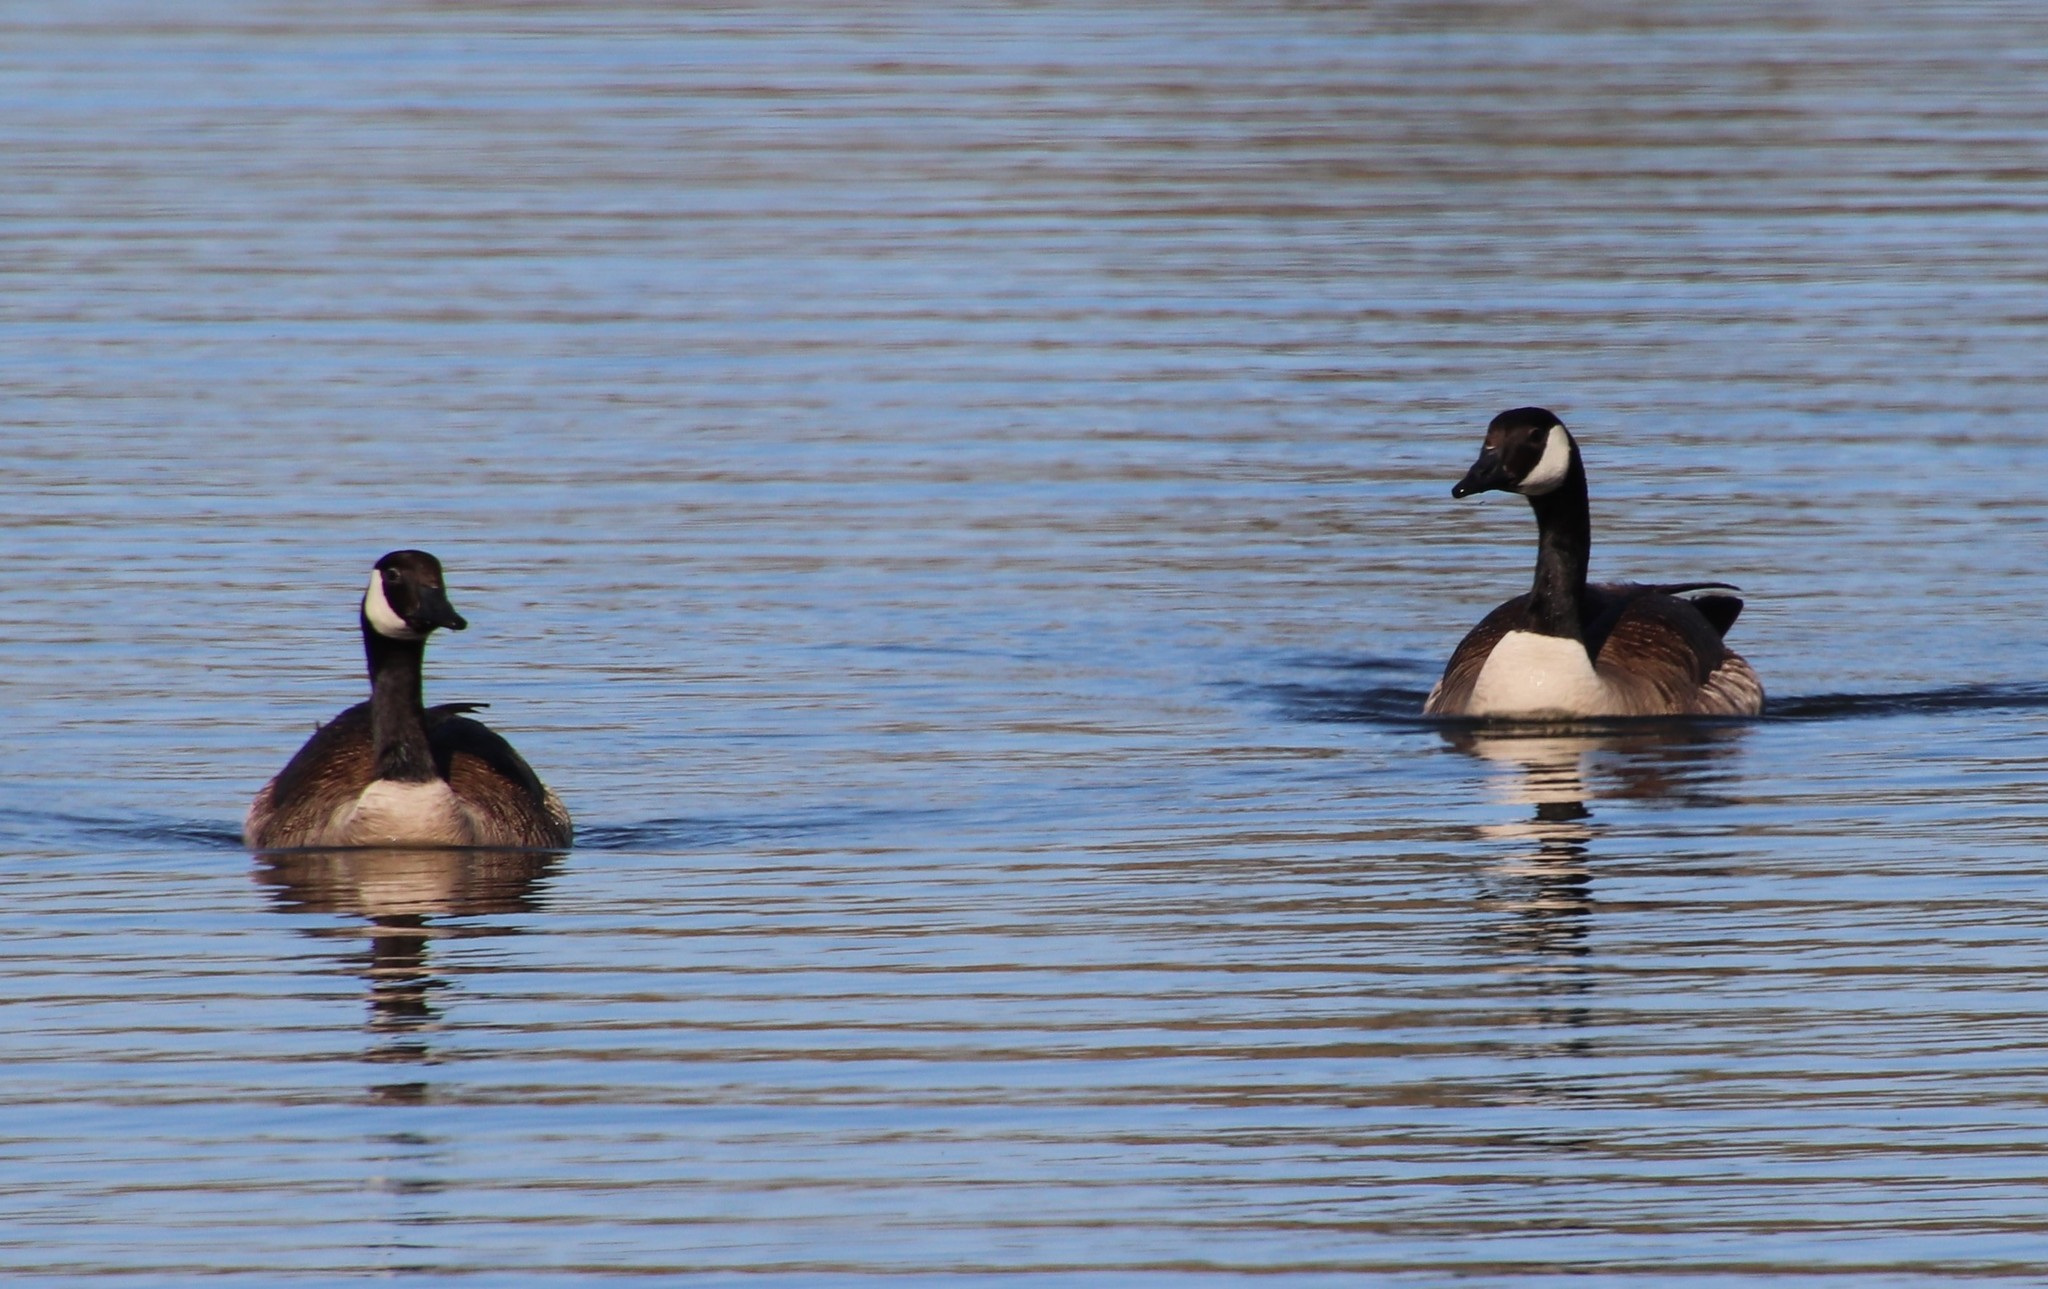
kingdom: Animalia
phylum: Chordata
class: Aves
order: Anseriformes
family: Anatidae
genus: Branta
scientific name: Branta canadensis
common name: Canada goose
